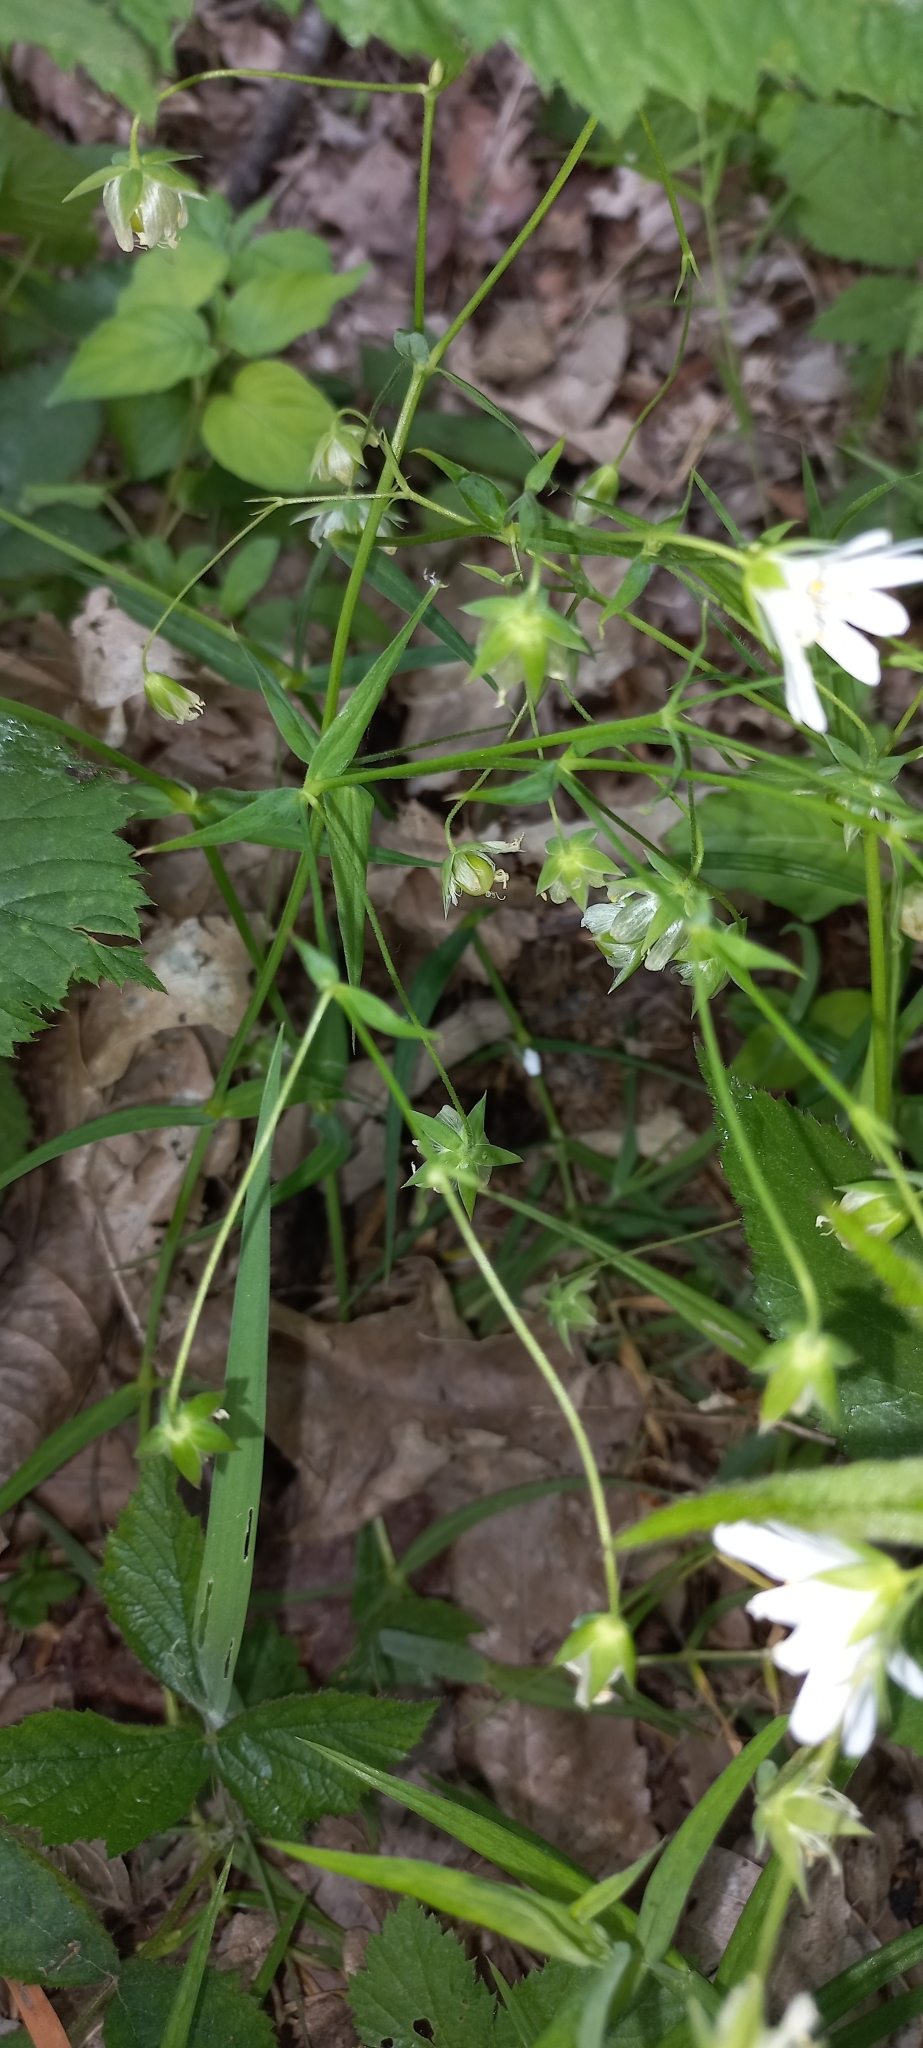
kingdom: Plantae
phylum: Tracheophyta
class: Magnoliopsida
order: Caryophyllales
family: Caryophyllaceae
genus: Rabelera
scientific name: Rabelera holostea
